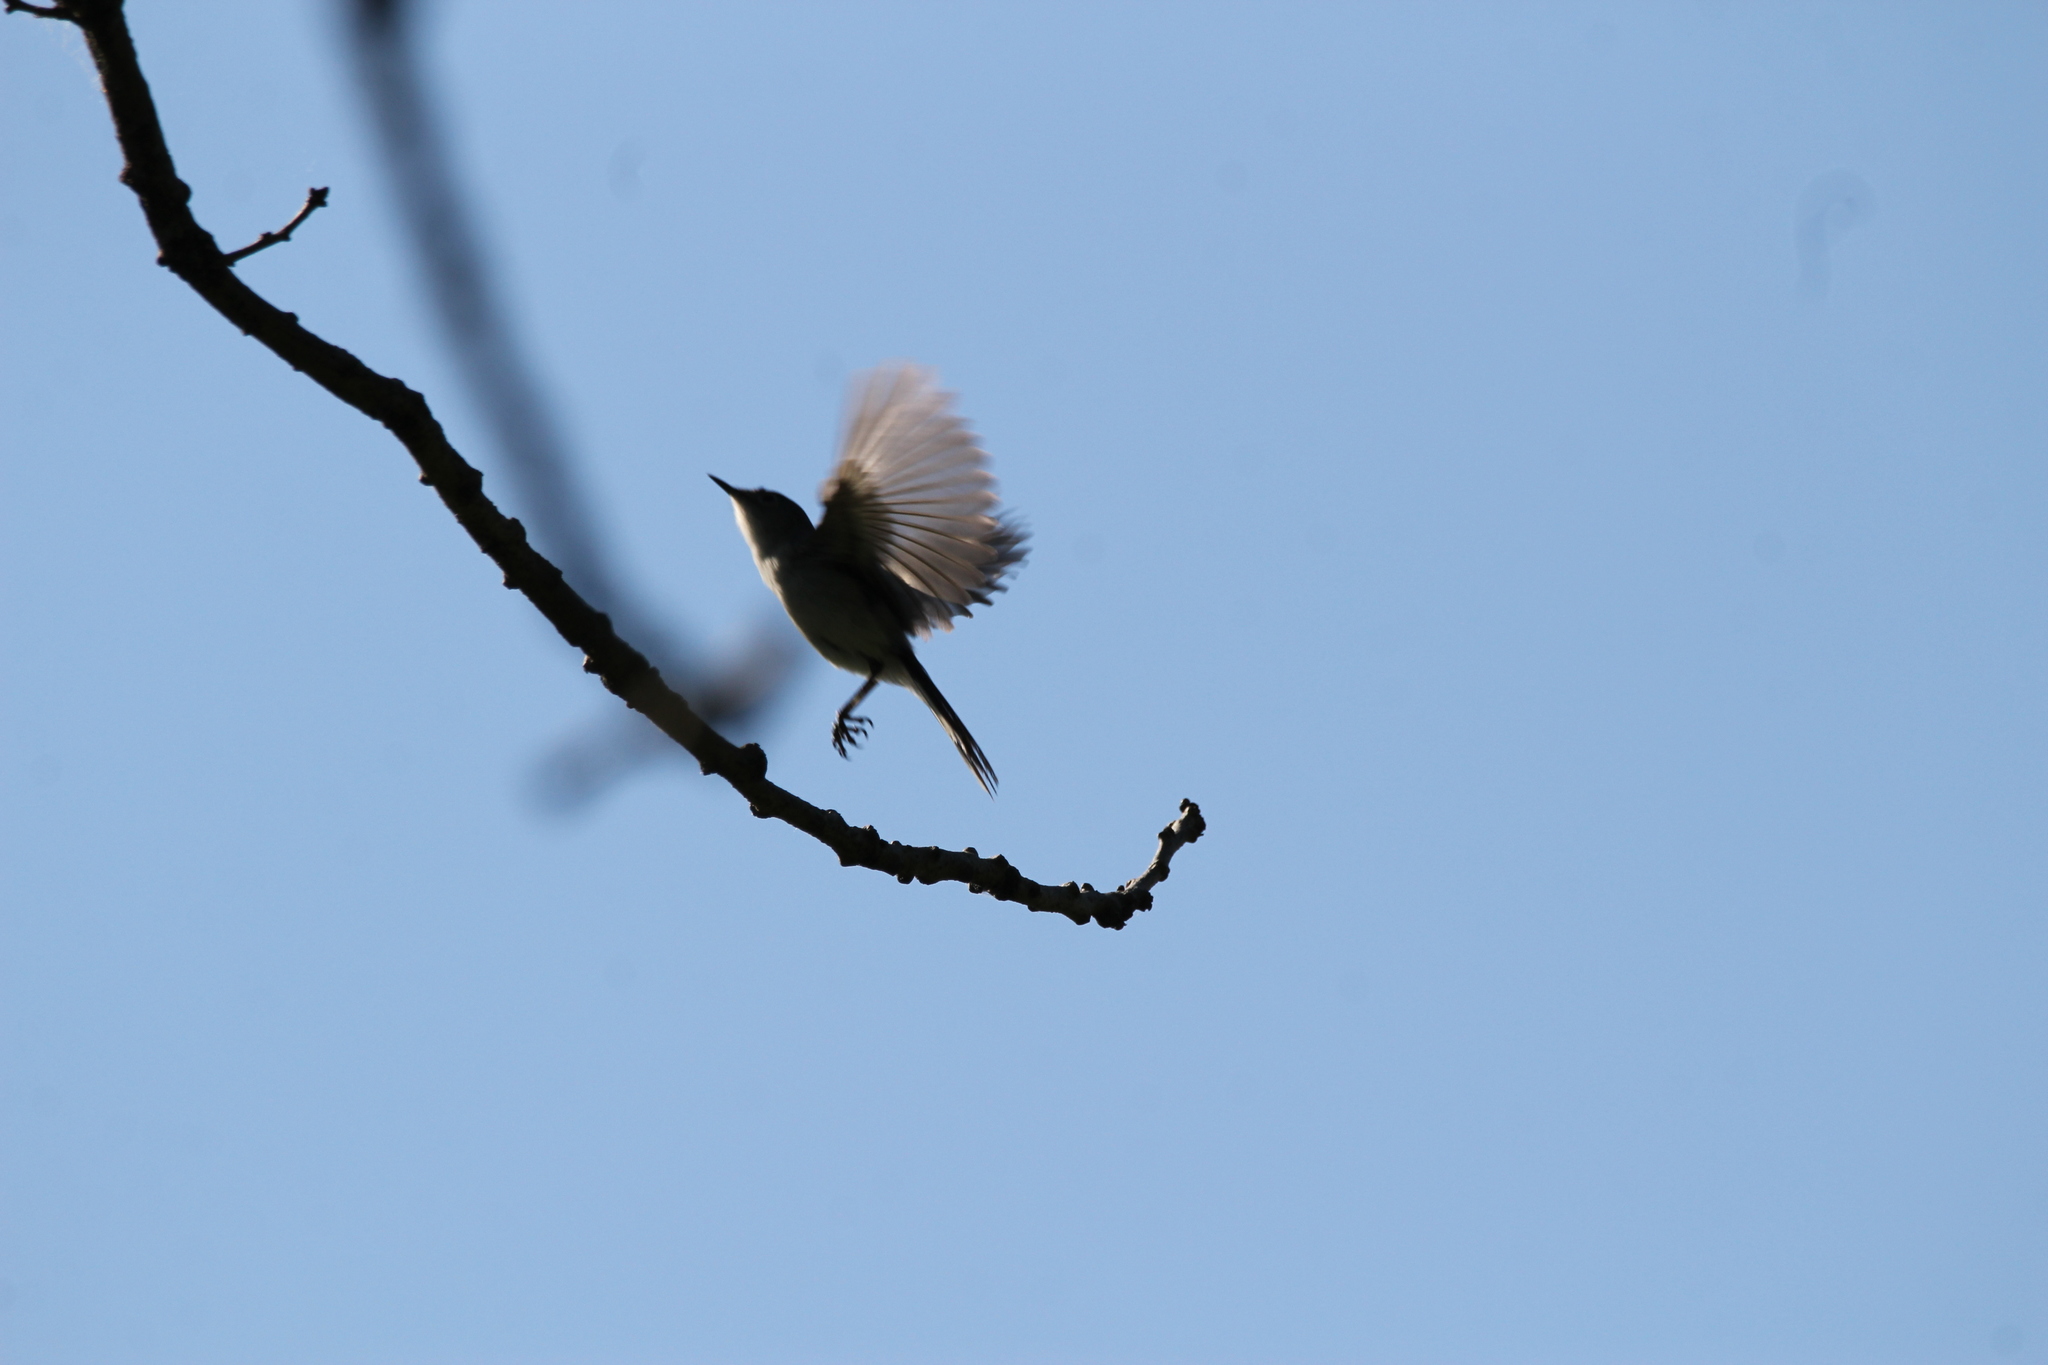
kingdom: Animalia
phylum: Chordata
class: Aves
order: Passeriformes
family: Polioptilidae
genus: Polioptila
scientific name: Polioptila caerulea
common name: Blue-gray gnatcatcher
